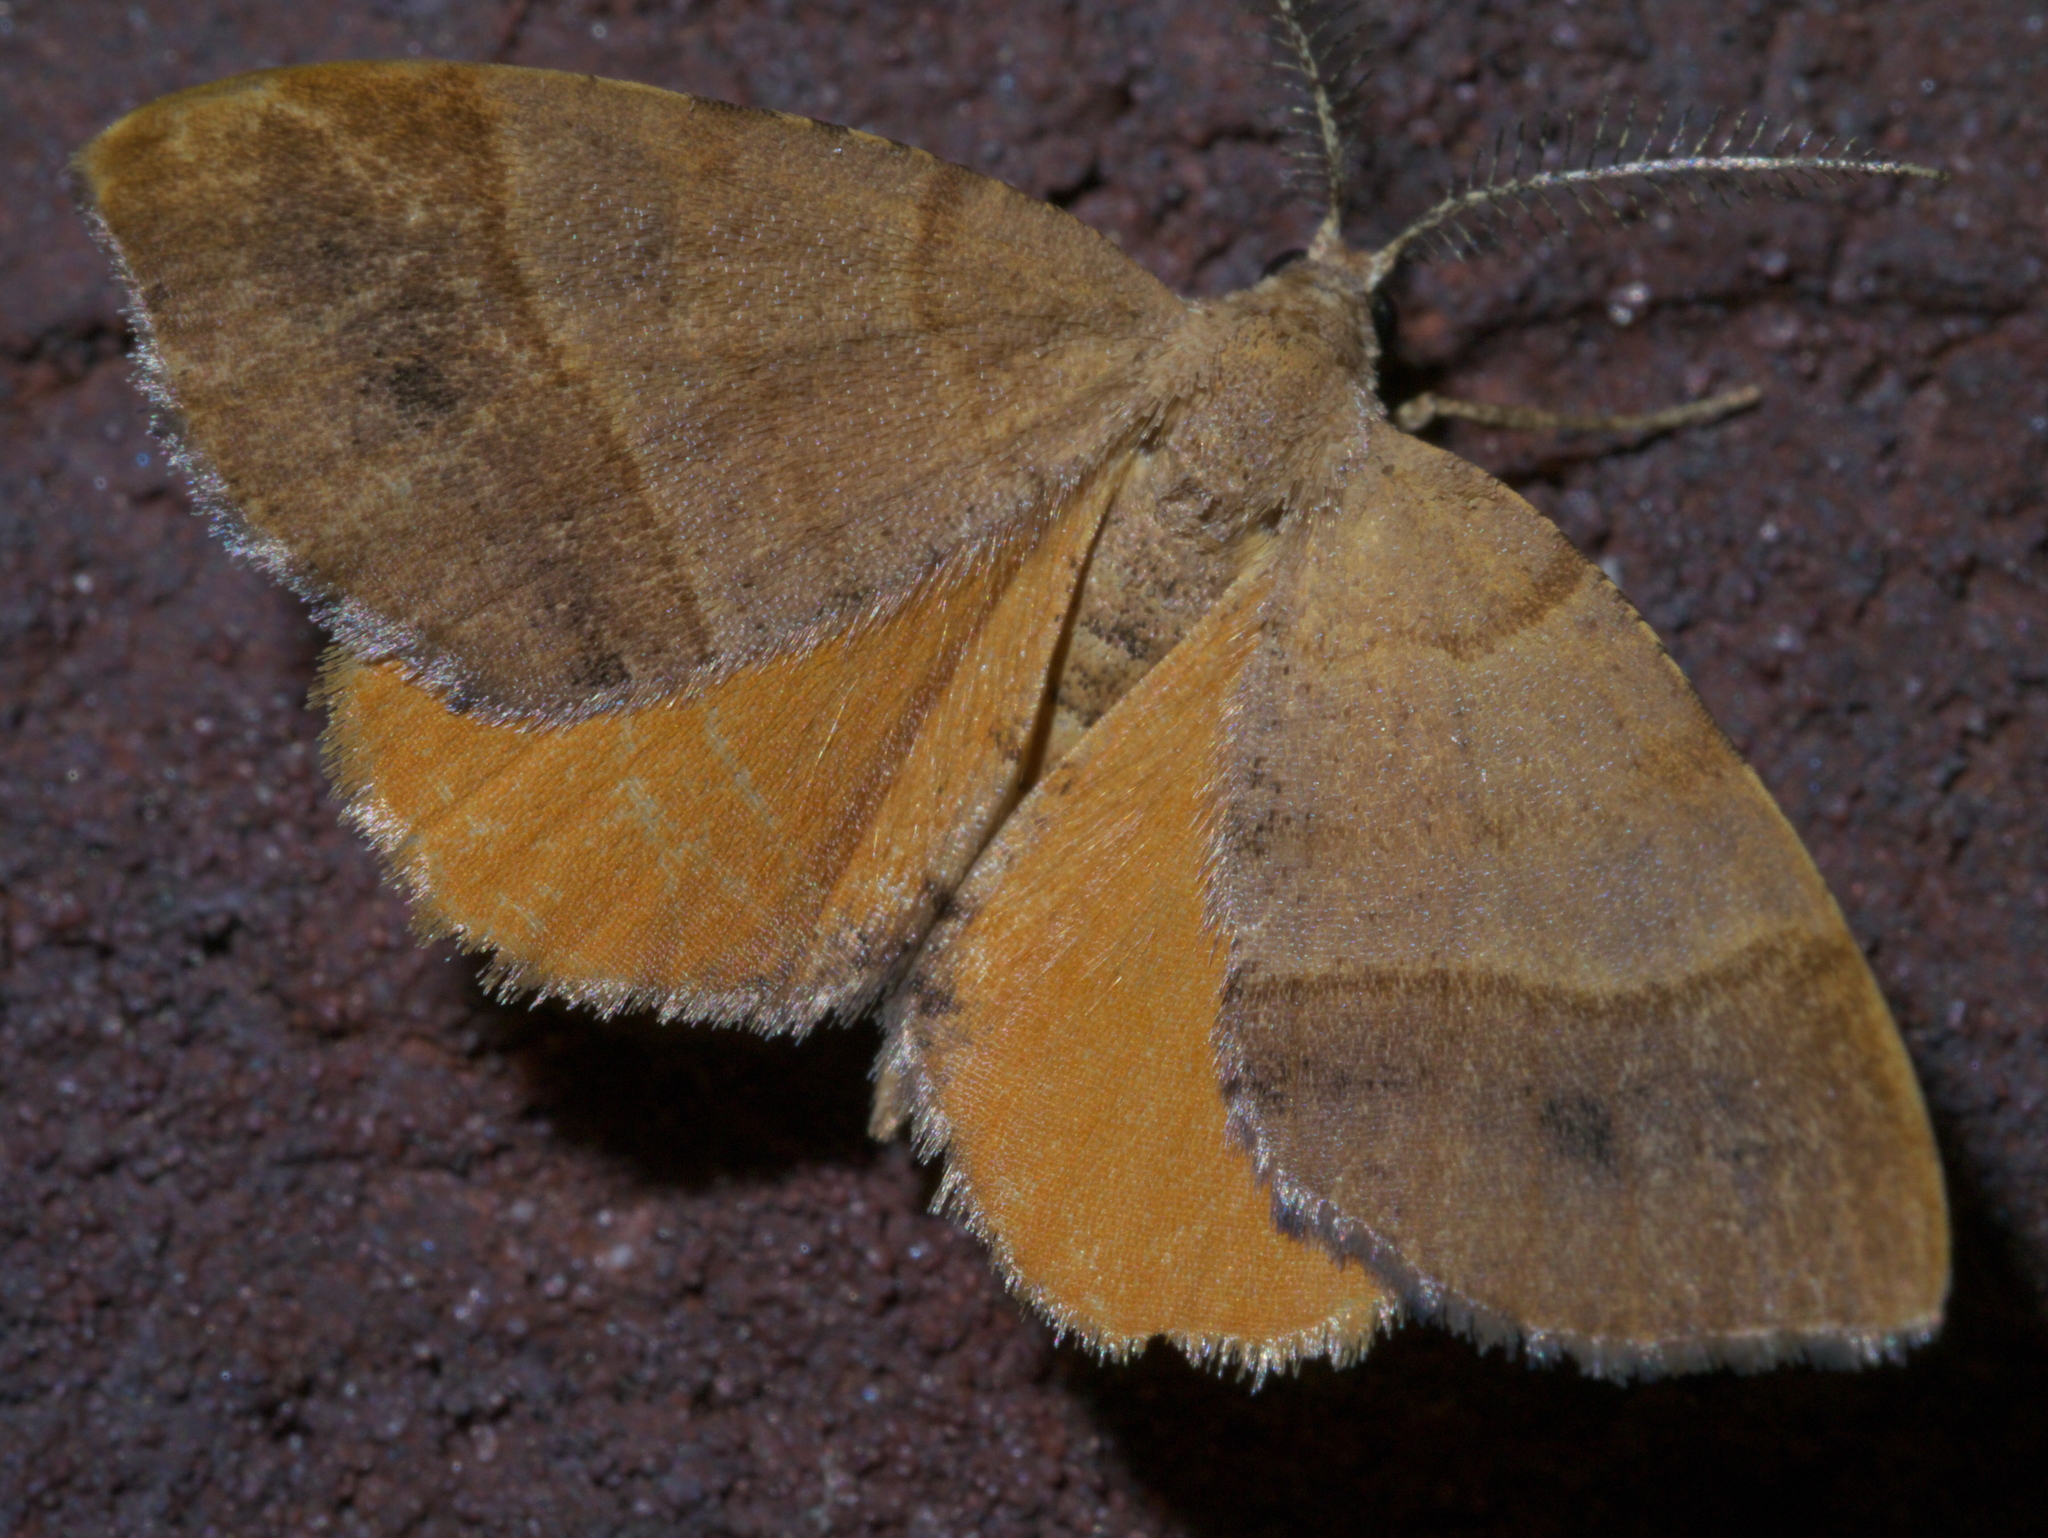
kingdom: Animalia
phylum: Arthropoda
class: Insecta
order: Lepidoptera
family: Geometridae
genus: Mellilla
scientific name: Mellilla xanthometata
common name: Orange wing moth
